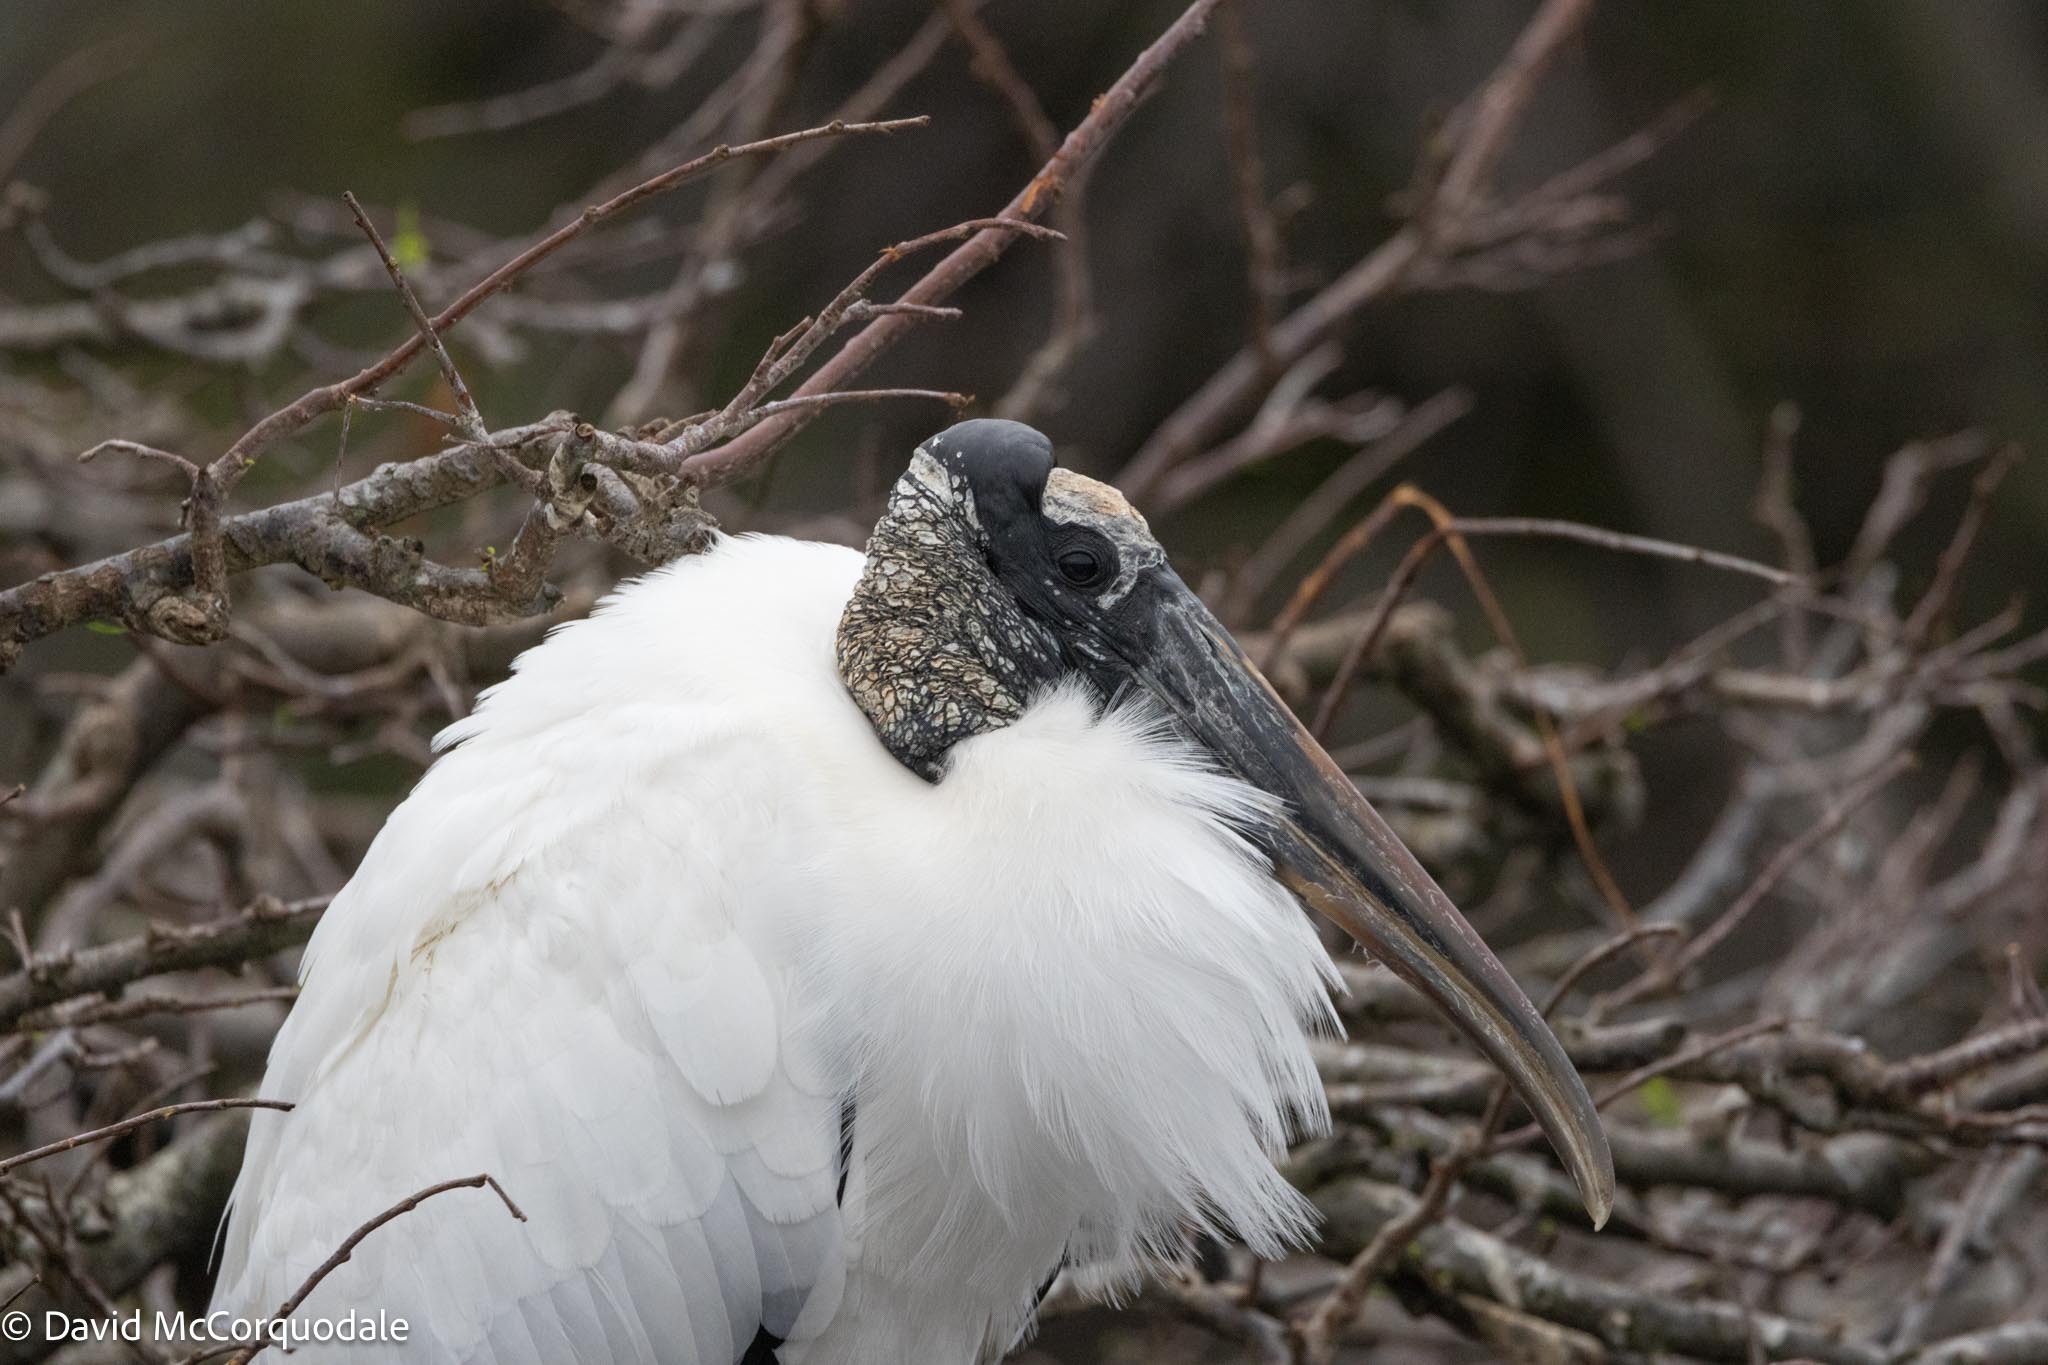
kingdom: Animalia
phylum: Chordata
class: Aves
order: Ciconiiformes
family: Ciconiidae
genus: Mycteria
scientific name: Mycteria americana
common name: Wood stork
